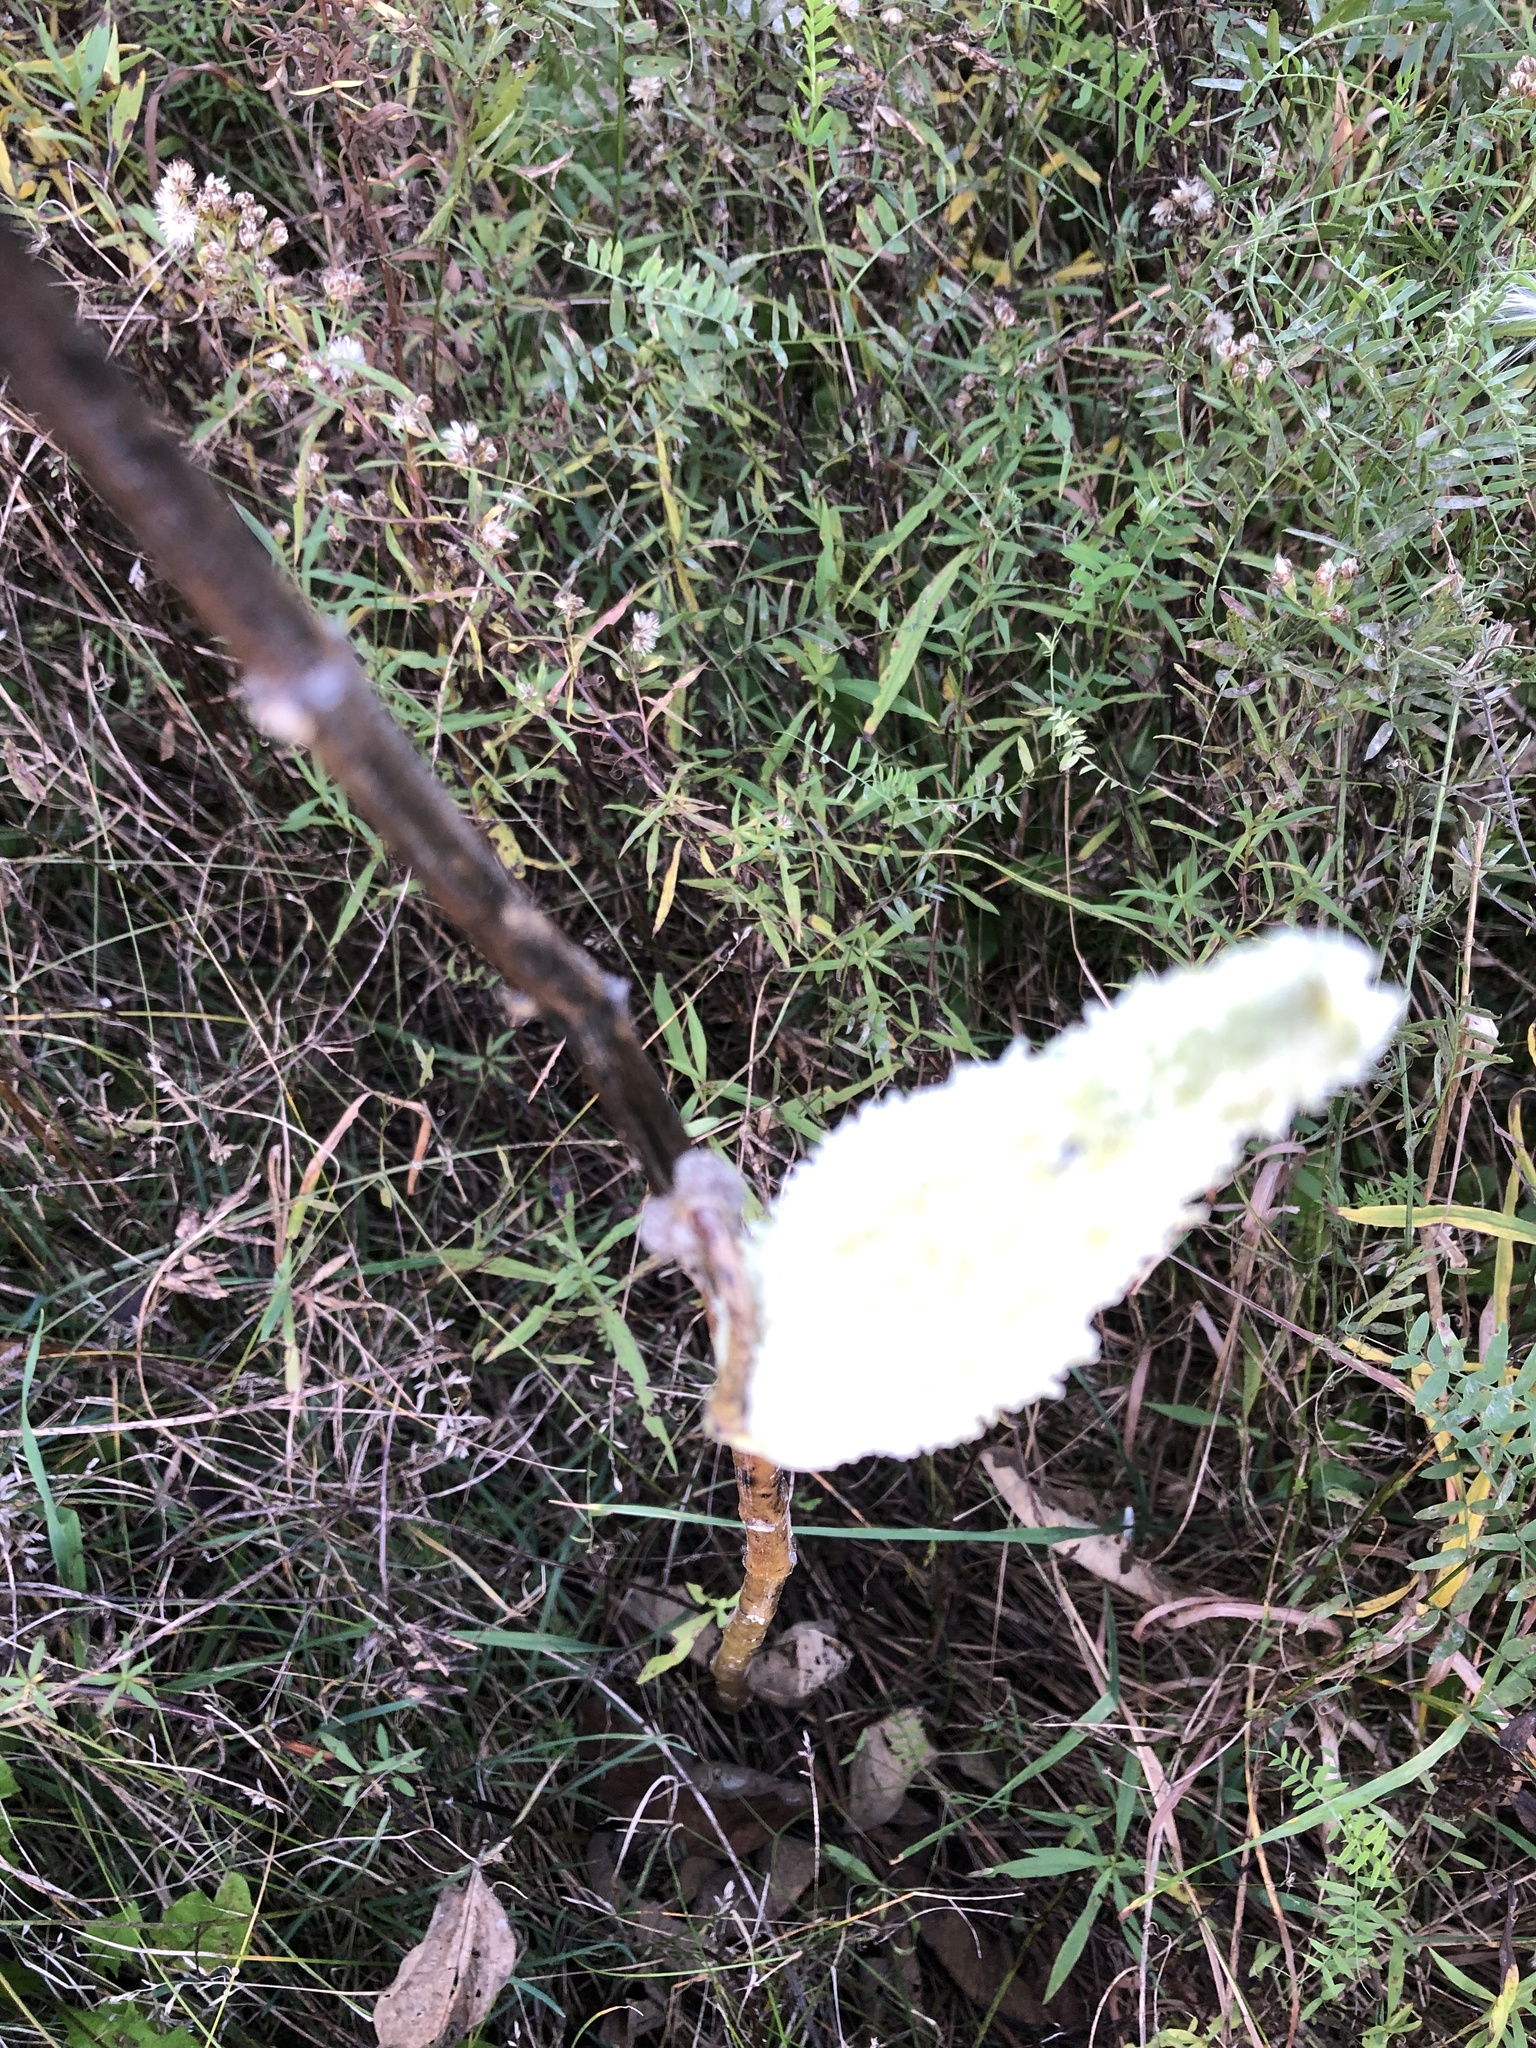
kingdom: Plantae
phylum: Tracheophyta
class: Magnoliopsida
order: Gentianales
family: Apocynaceae
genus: Asclepias
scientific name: Asclepias syriaca
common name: Common milkweed
